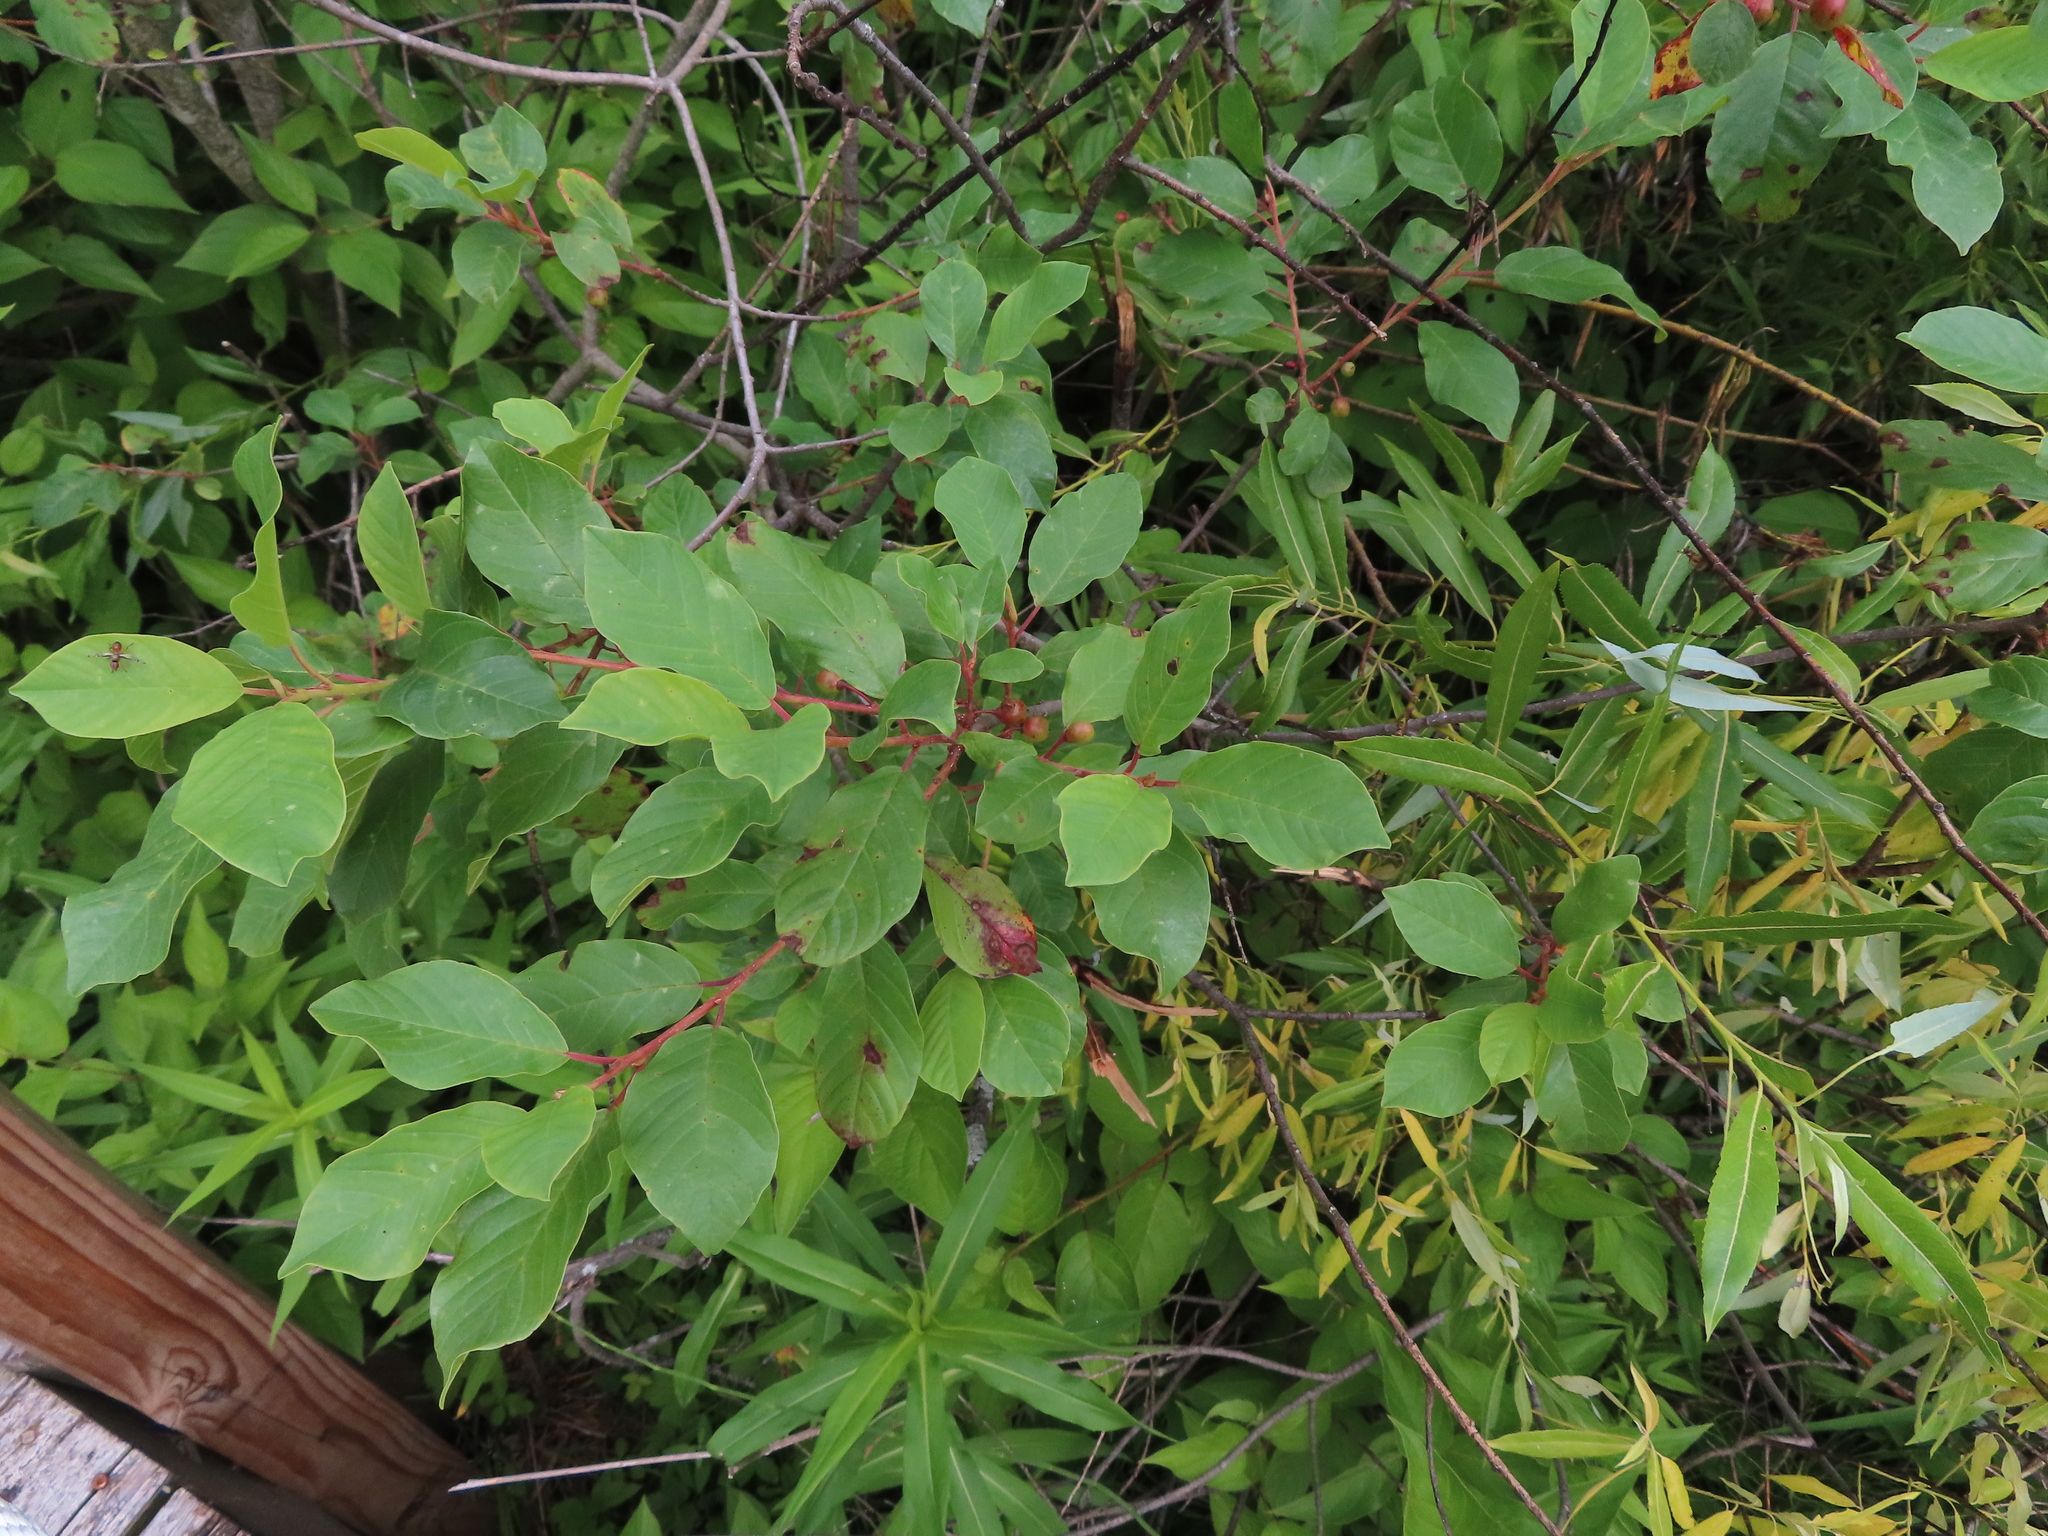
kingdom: Plantae
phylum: Tracheophyta
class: Magnoliopsida
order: Rosales
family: Rhamnaceae
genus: Frangula
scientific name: Frangula alnus
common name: Alder buckthorn
